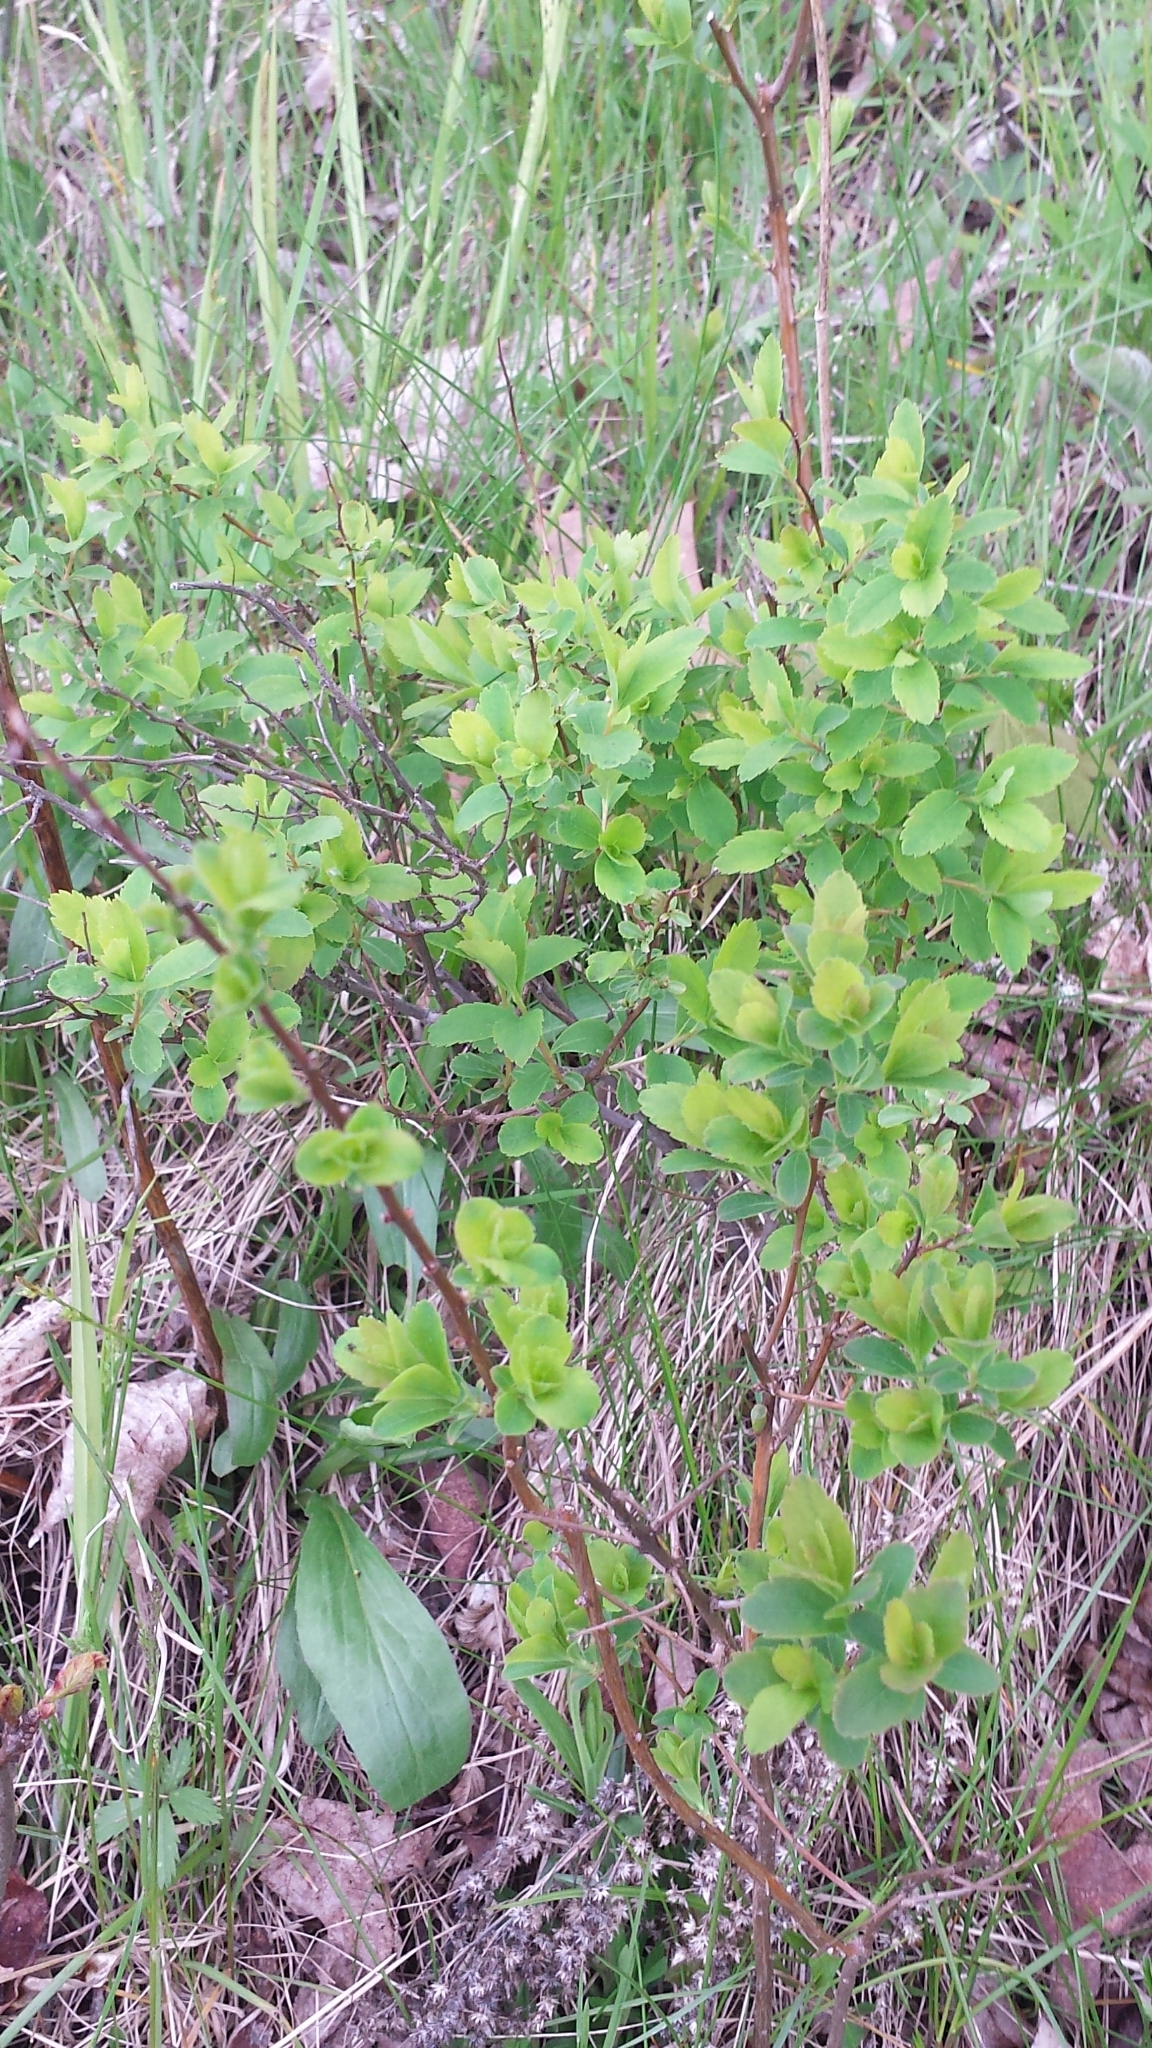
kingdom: Plantae
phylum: Tracheophyta
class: Magnoliopsida
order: Rosales
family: Rosaceae
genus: Spiraea
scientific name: Spiraea alba
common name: Pale bridewort
